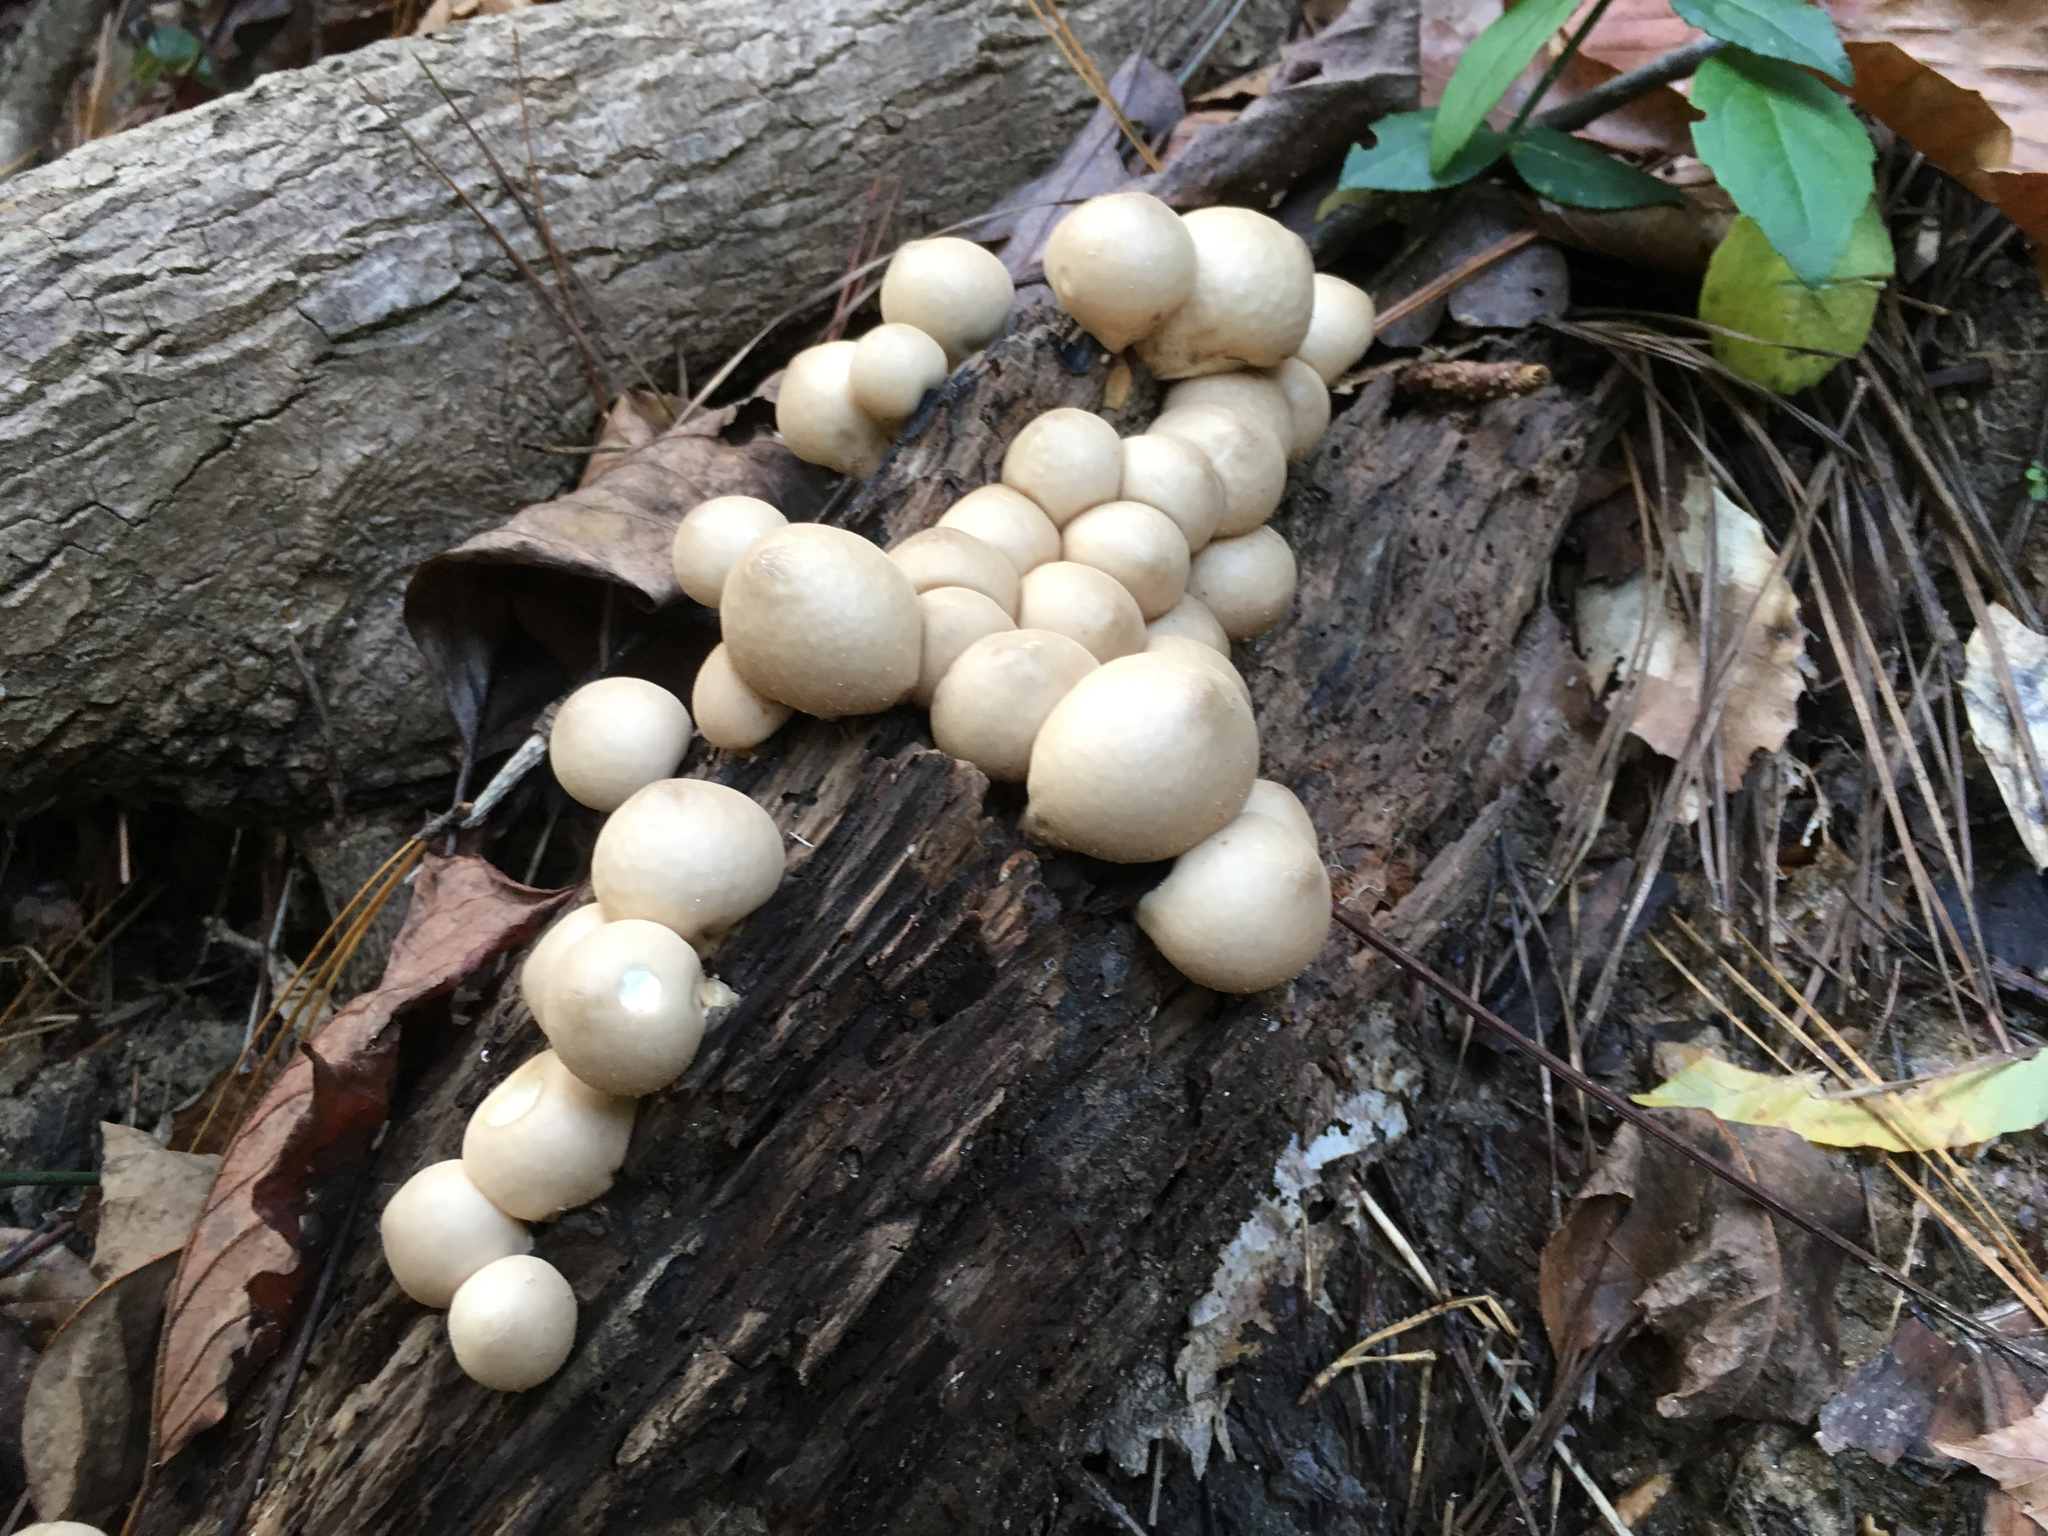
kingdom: Fungi
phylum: Basidiomycota
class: Agaricomycetes
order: Agaricales
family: Lycoperdaceae
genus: Apioperdon
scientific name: Apioperdon pyriforme
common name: Pear-shaped puffball
